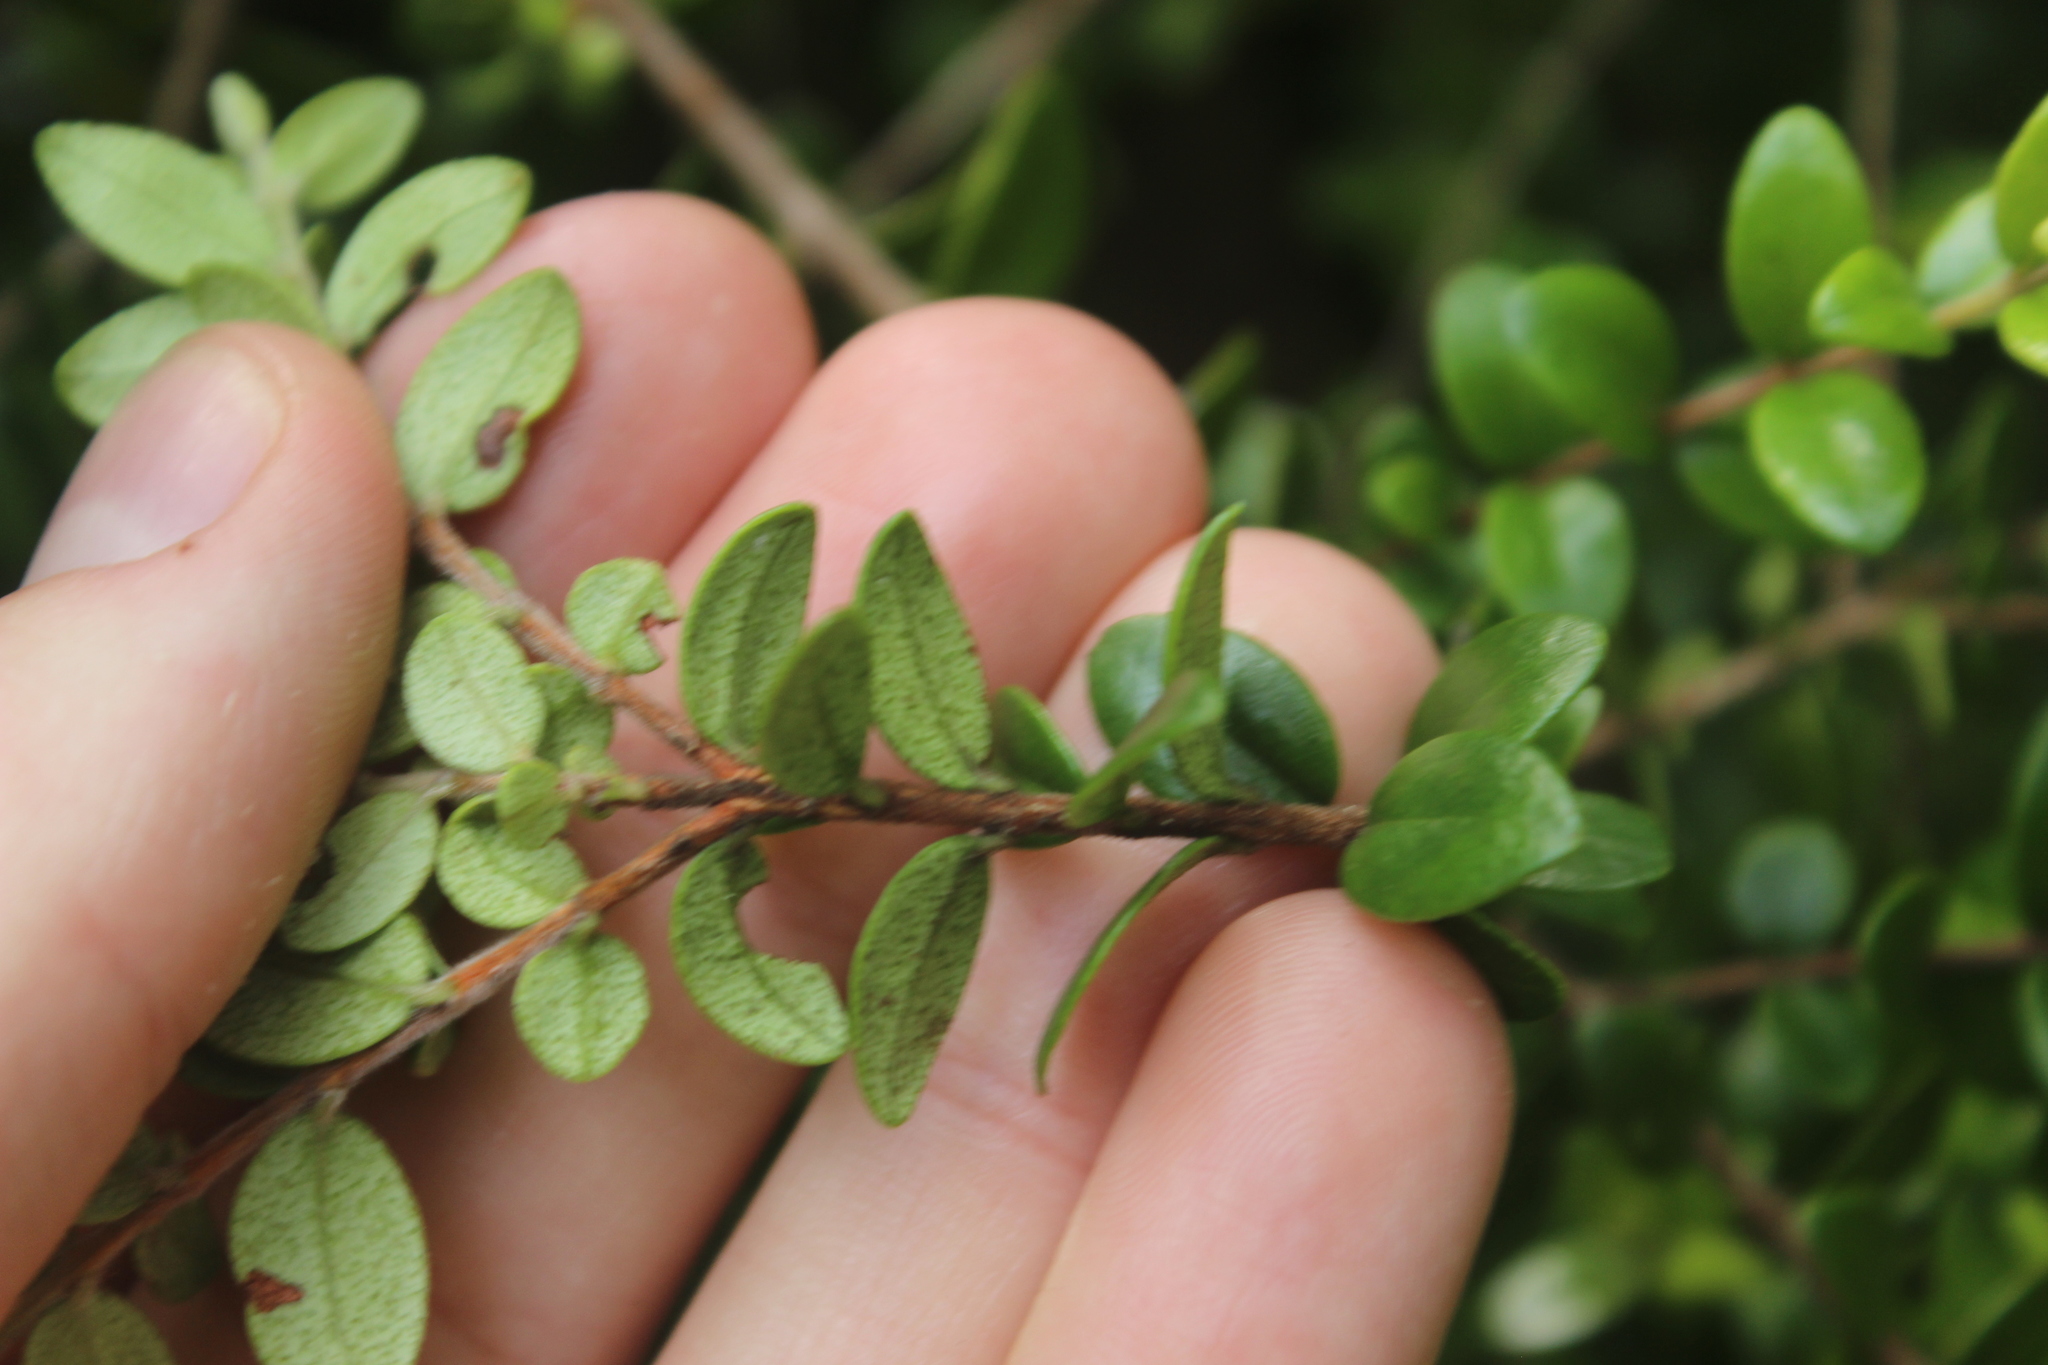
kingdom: Plantae
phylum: Tracheophyta
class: Magnoliopsida
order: Myrtales
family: Myrtaceae
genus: Metrosideros
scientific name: Metrosideros perforata
